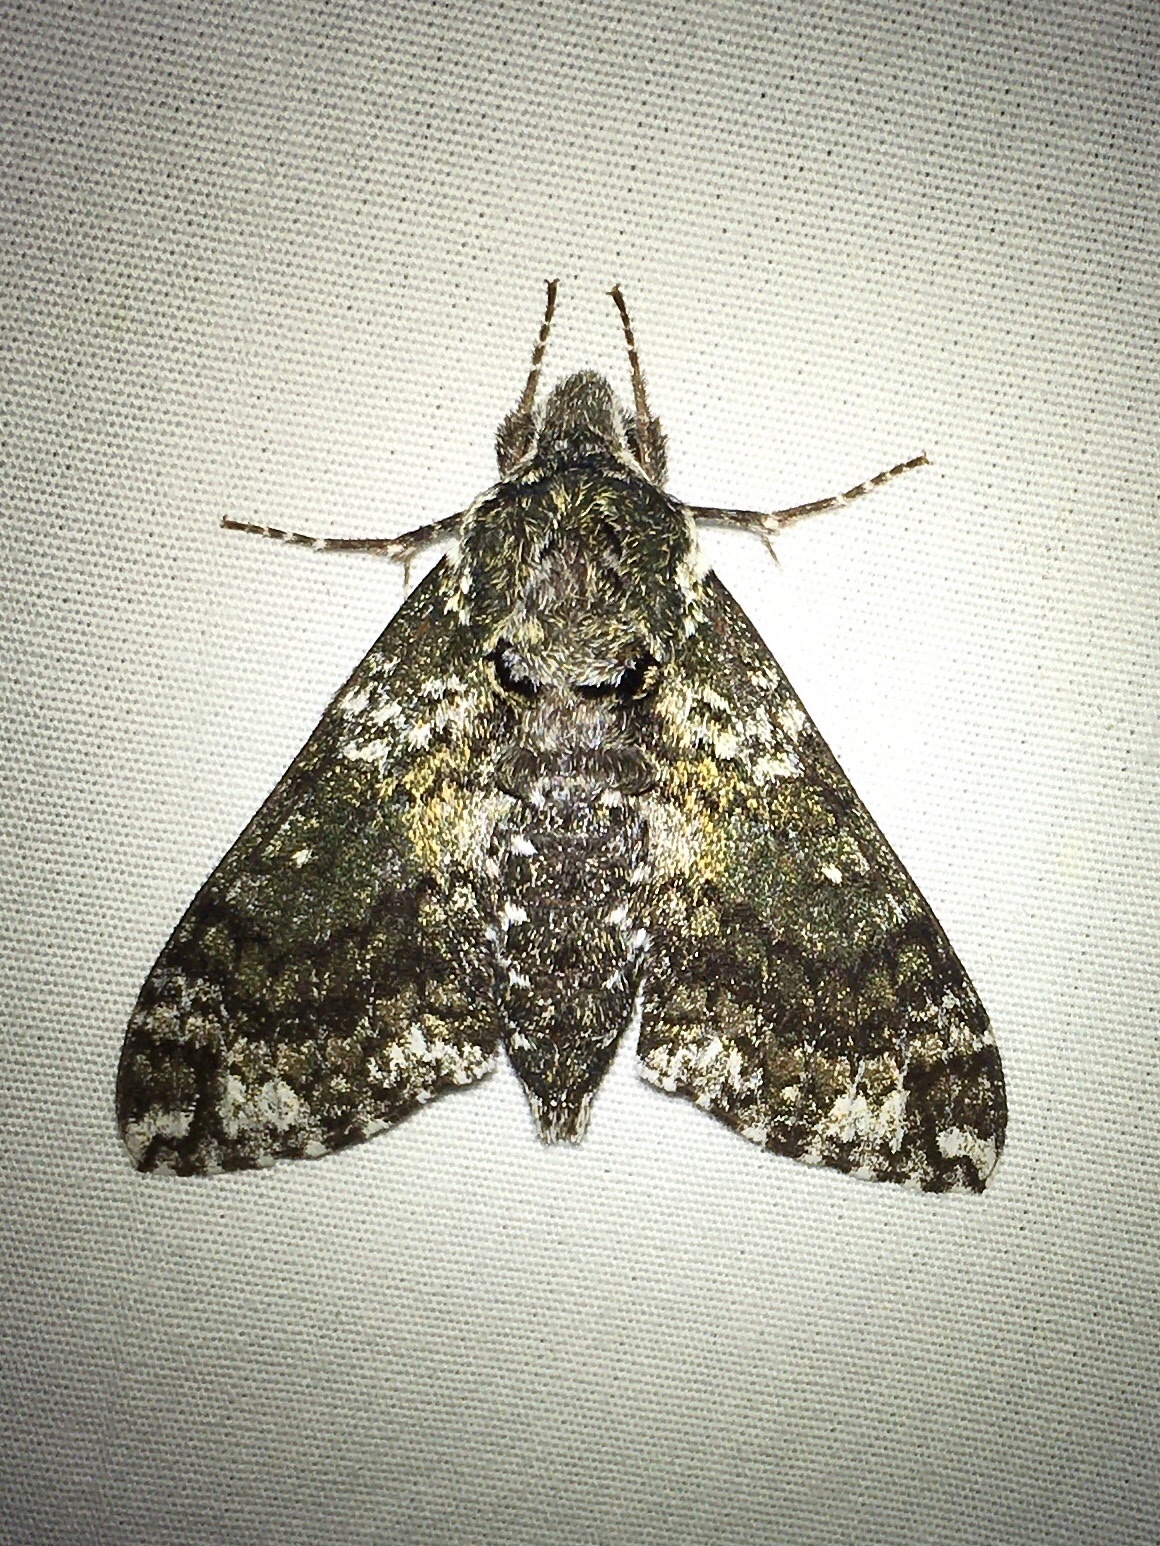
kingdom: Animalia
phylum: Arthropoda
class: Insecta
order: Lepidoptera
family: Sphingidae
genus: Dolba
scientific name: Dolba hyloeus
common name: Pawpaw sphinx
